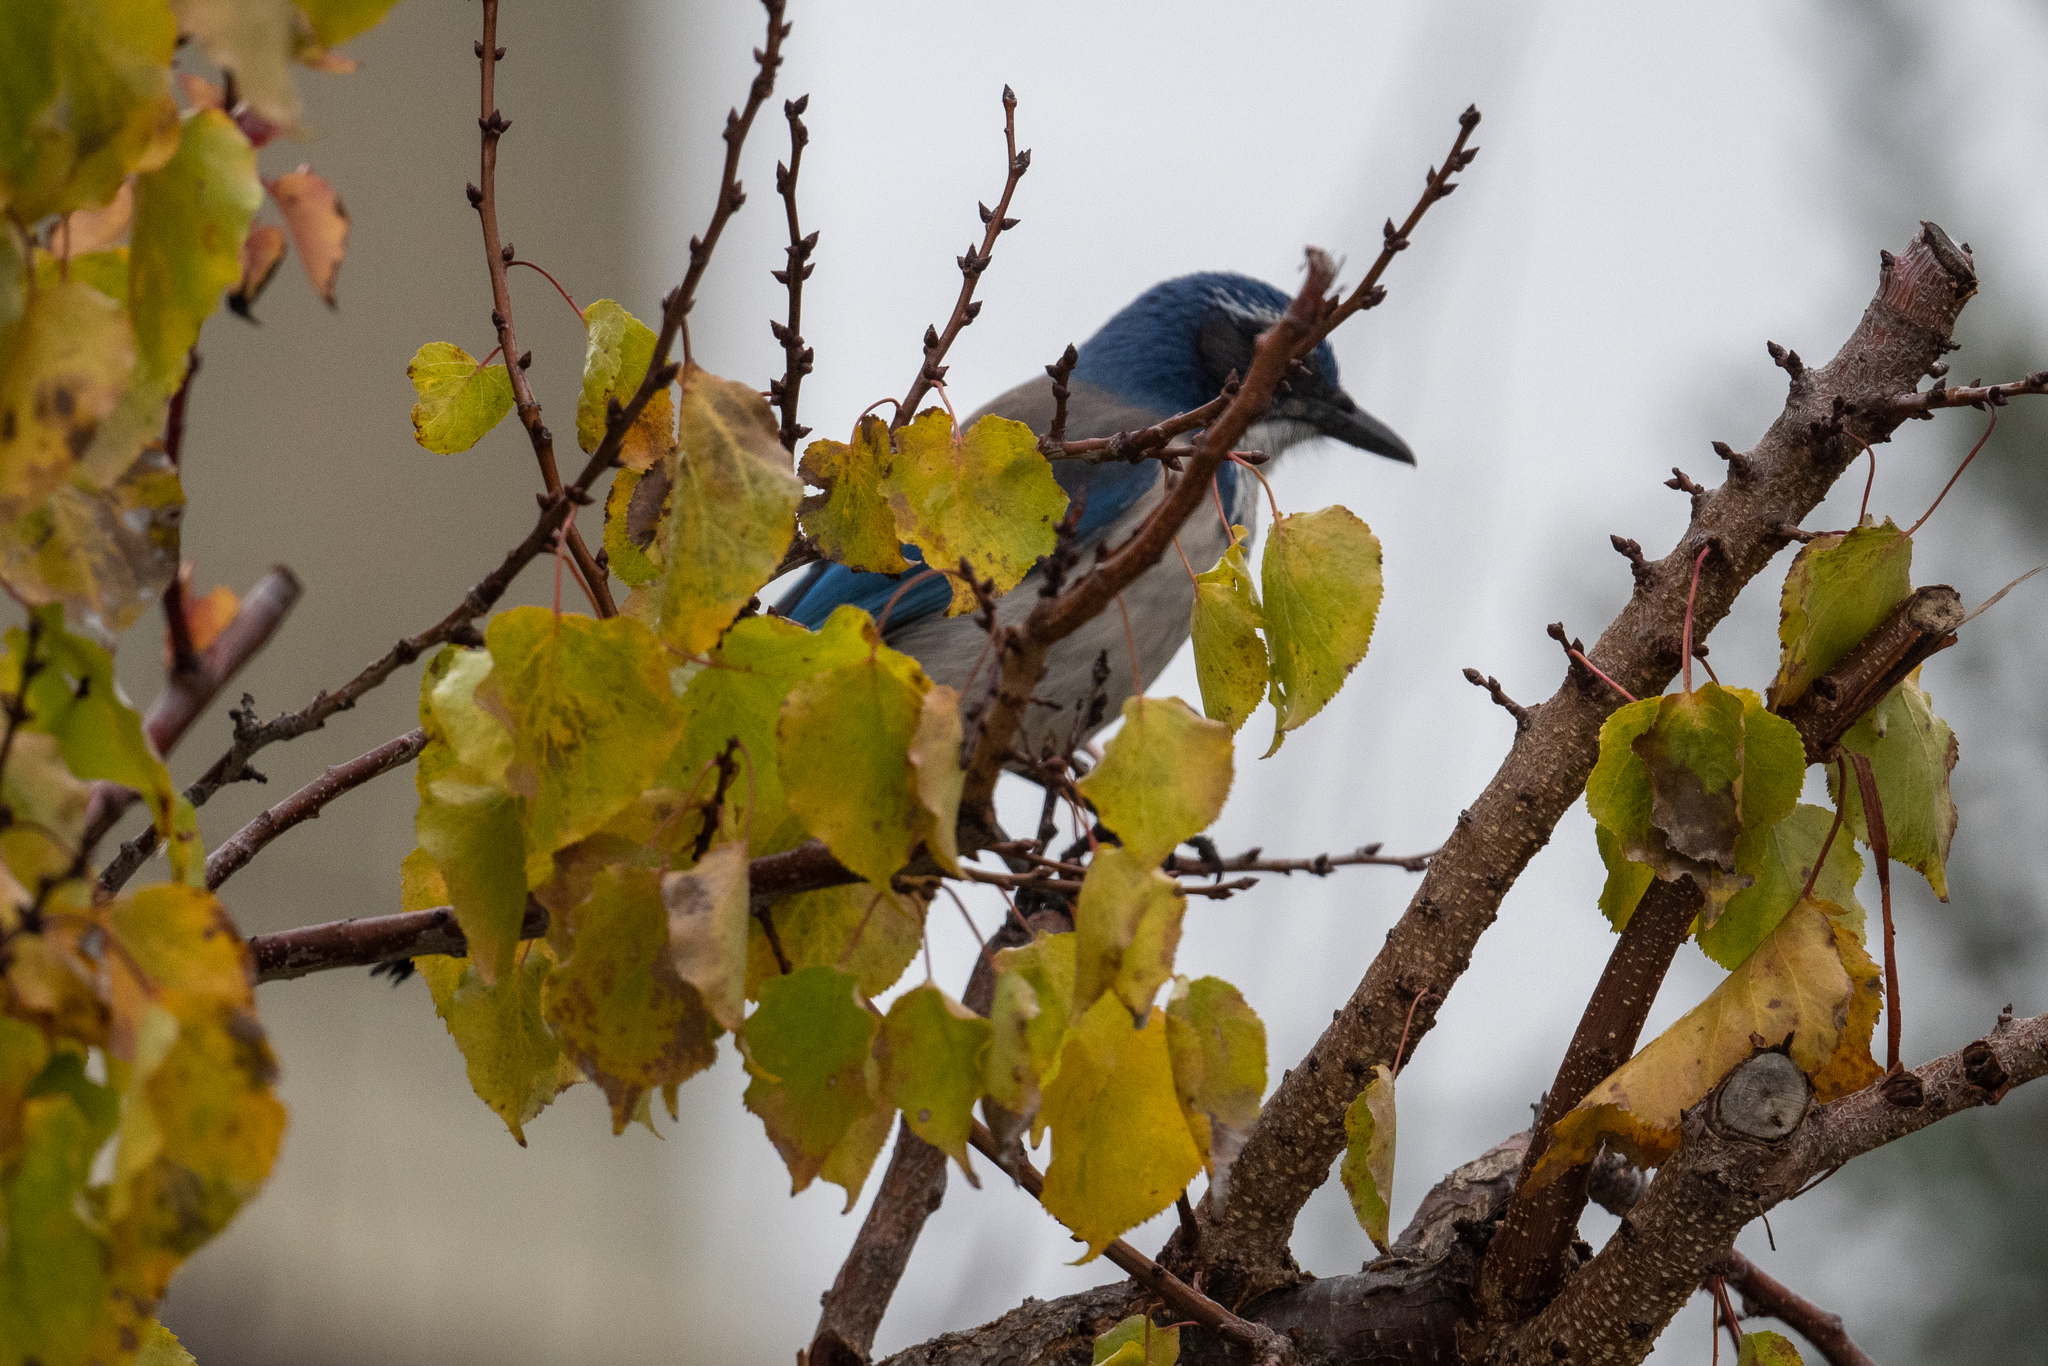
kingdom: Animalia
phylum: Chordata
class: Aves
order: Passeriformes
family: Corvidae
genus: Aphelocoma
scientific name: Aphelocoma californica
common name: California scrub-jay
